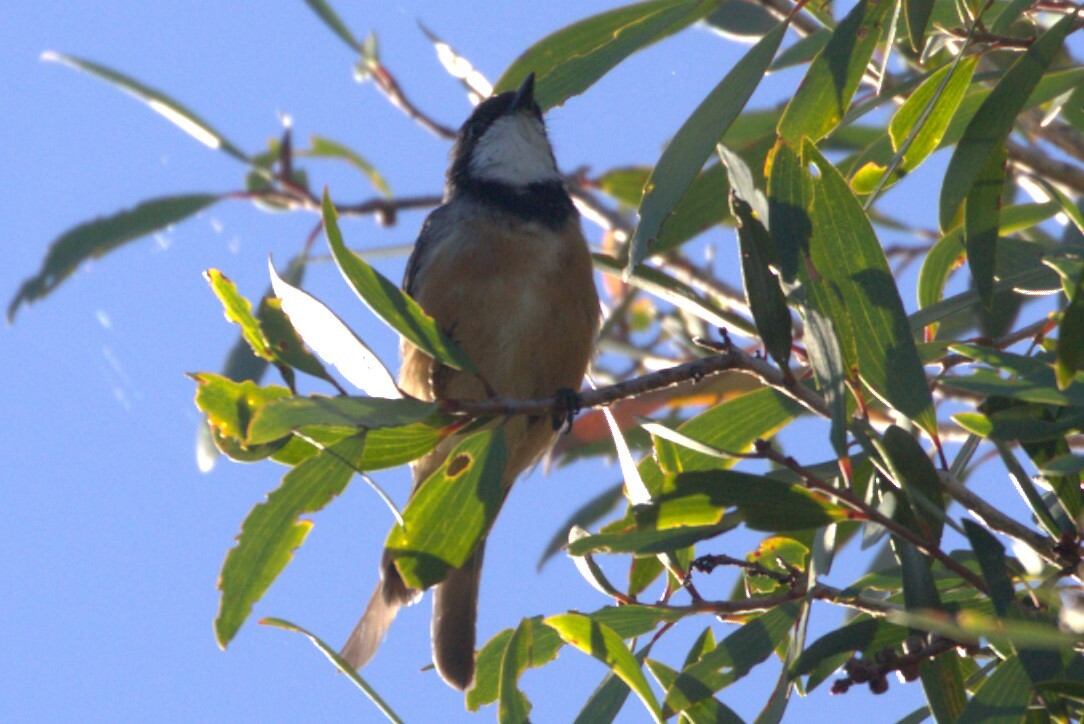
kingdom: Animalia
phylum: Chordata
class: Aves
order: Passeriformes
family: Pachycephalidae
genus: Pachycephala
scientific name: Pachycephala rufiventris
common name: Rufous whistler
